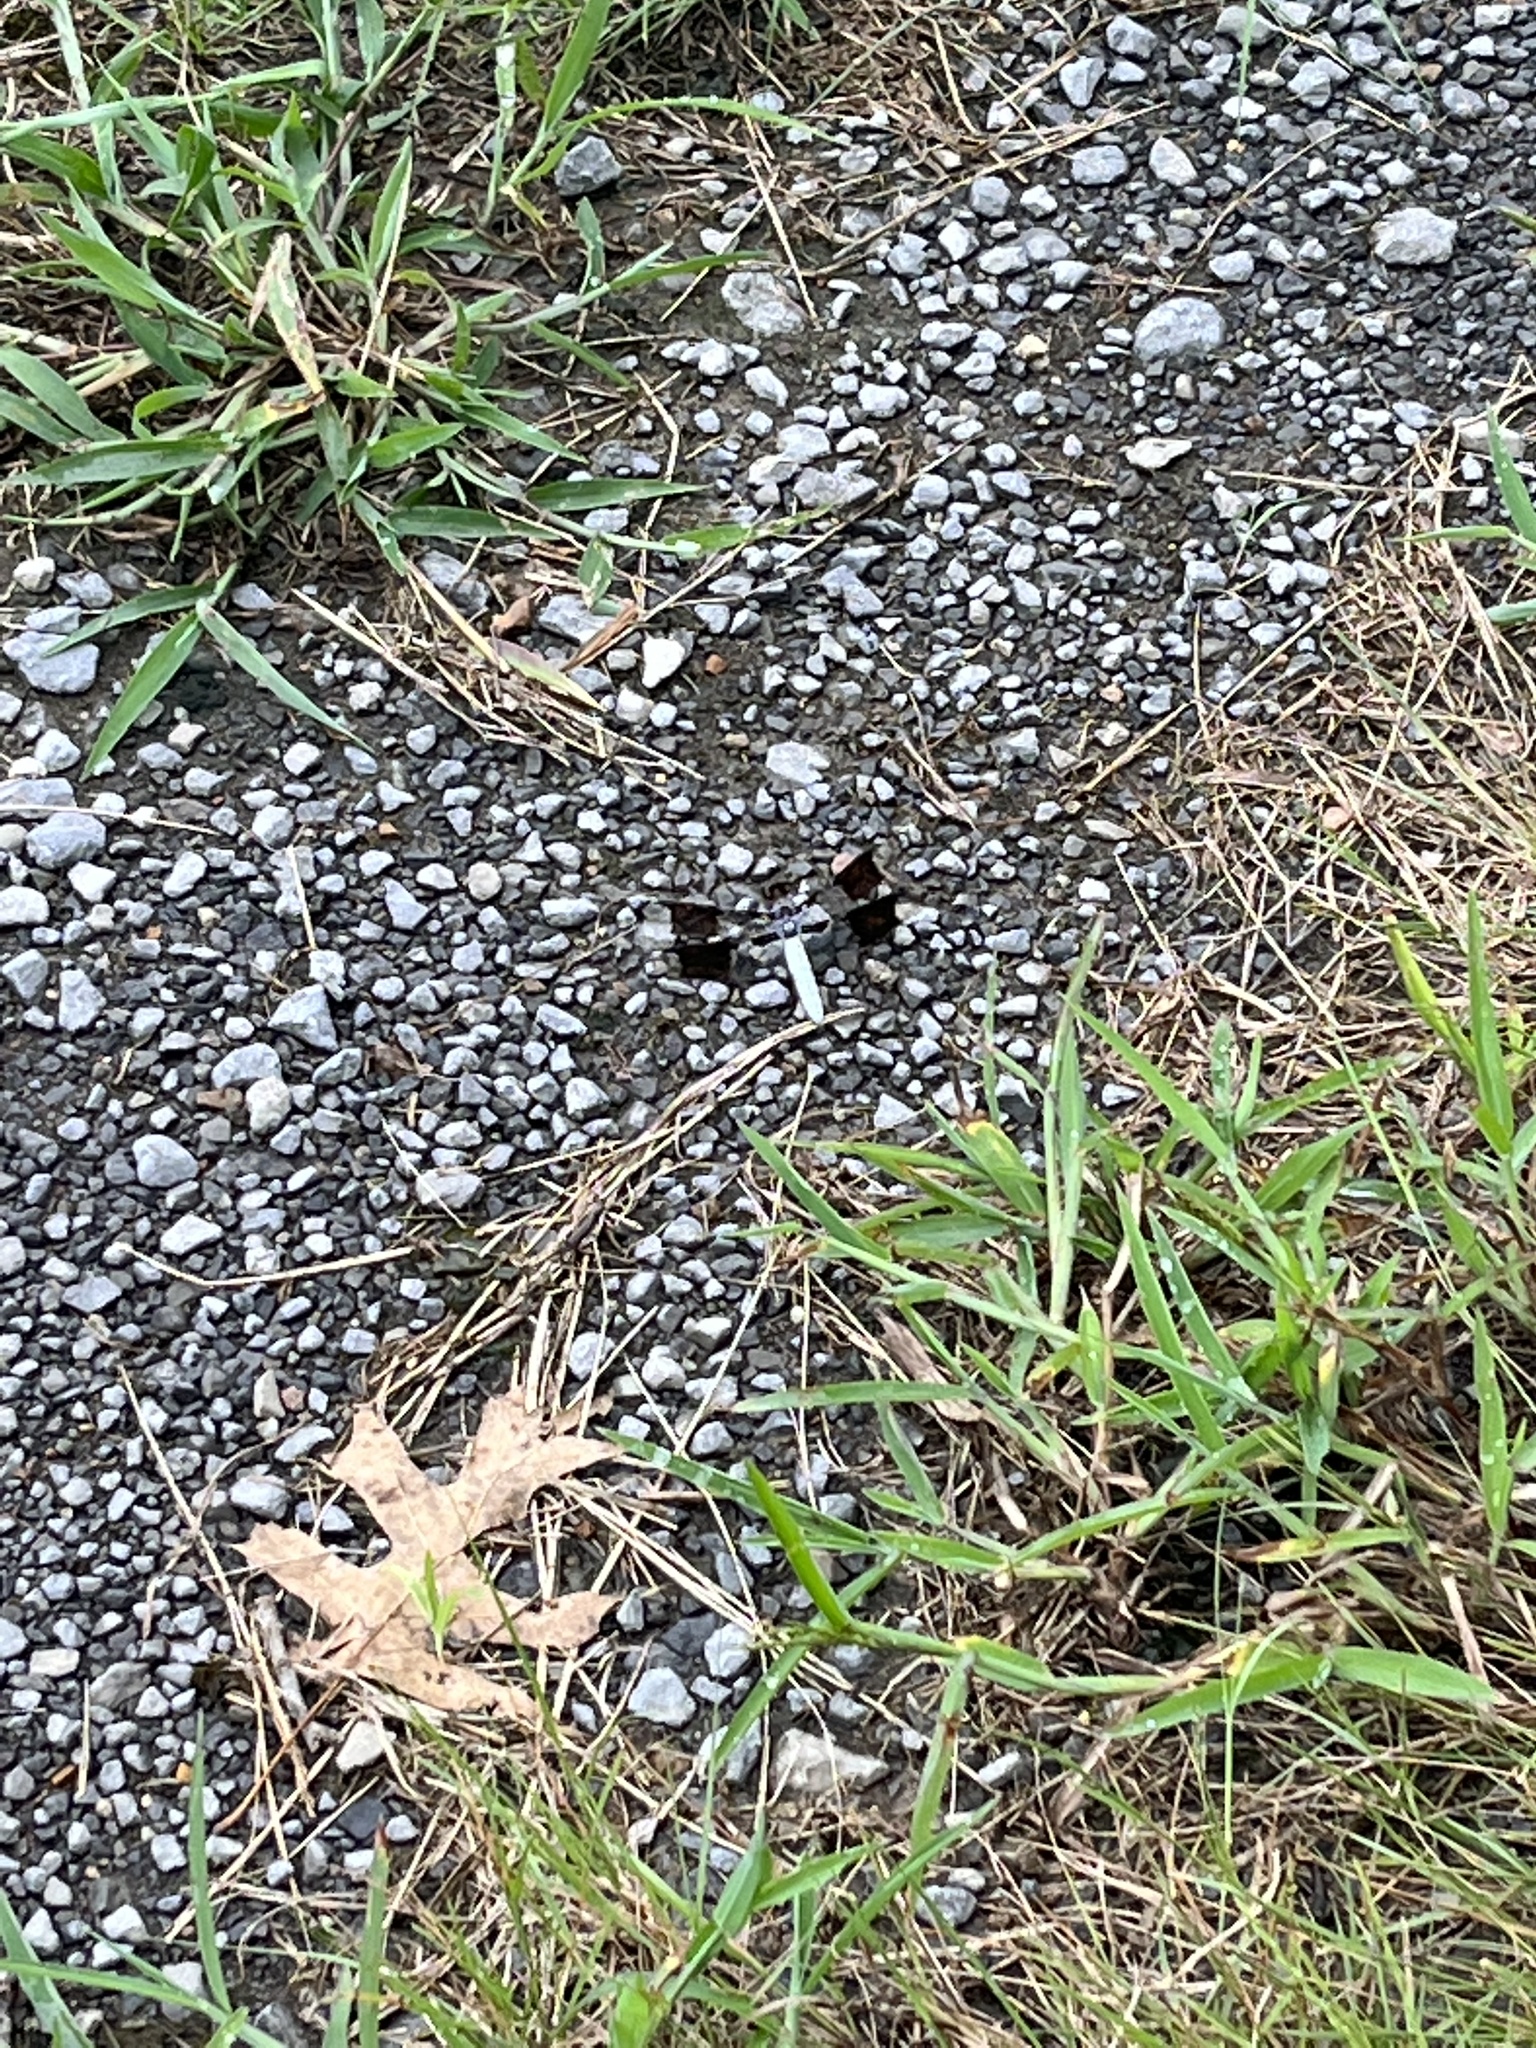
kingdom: Animalia
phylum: Arthropoda
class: Insecta
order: Odonata
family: Libellulidae
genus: Plathemis
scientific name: Plathemis lydia
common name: Common whitetail
